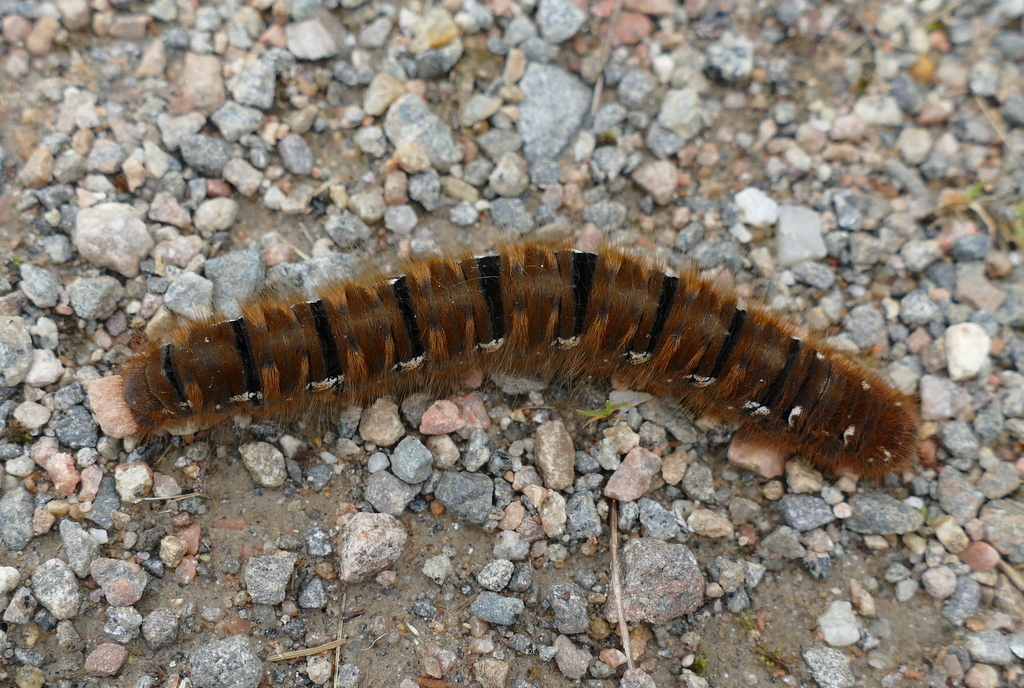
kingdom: Animalia
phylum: Arthropoda
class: Insecta
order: Lepidoptera
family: Lasiocampidae
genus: Lasiocampa
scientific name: Lasiocampa quercus
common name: Oak eggar
